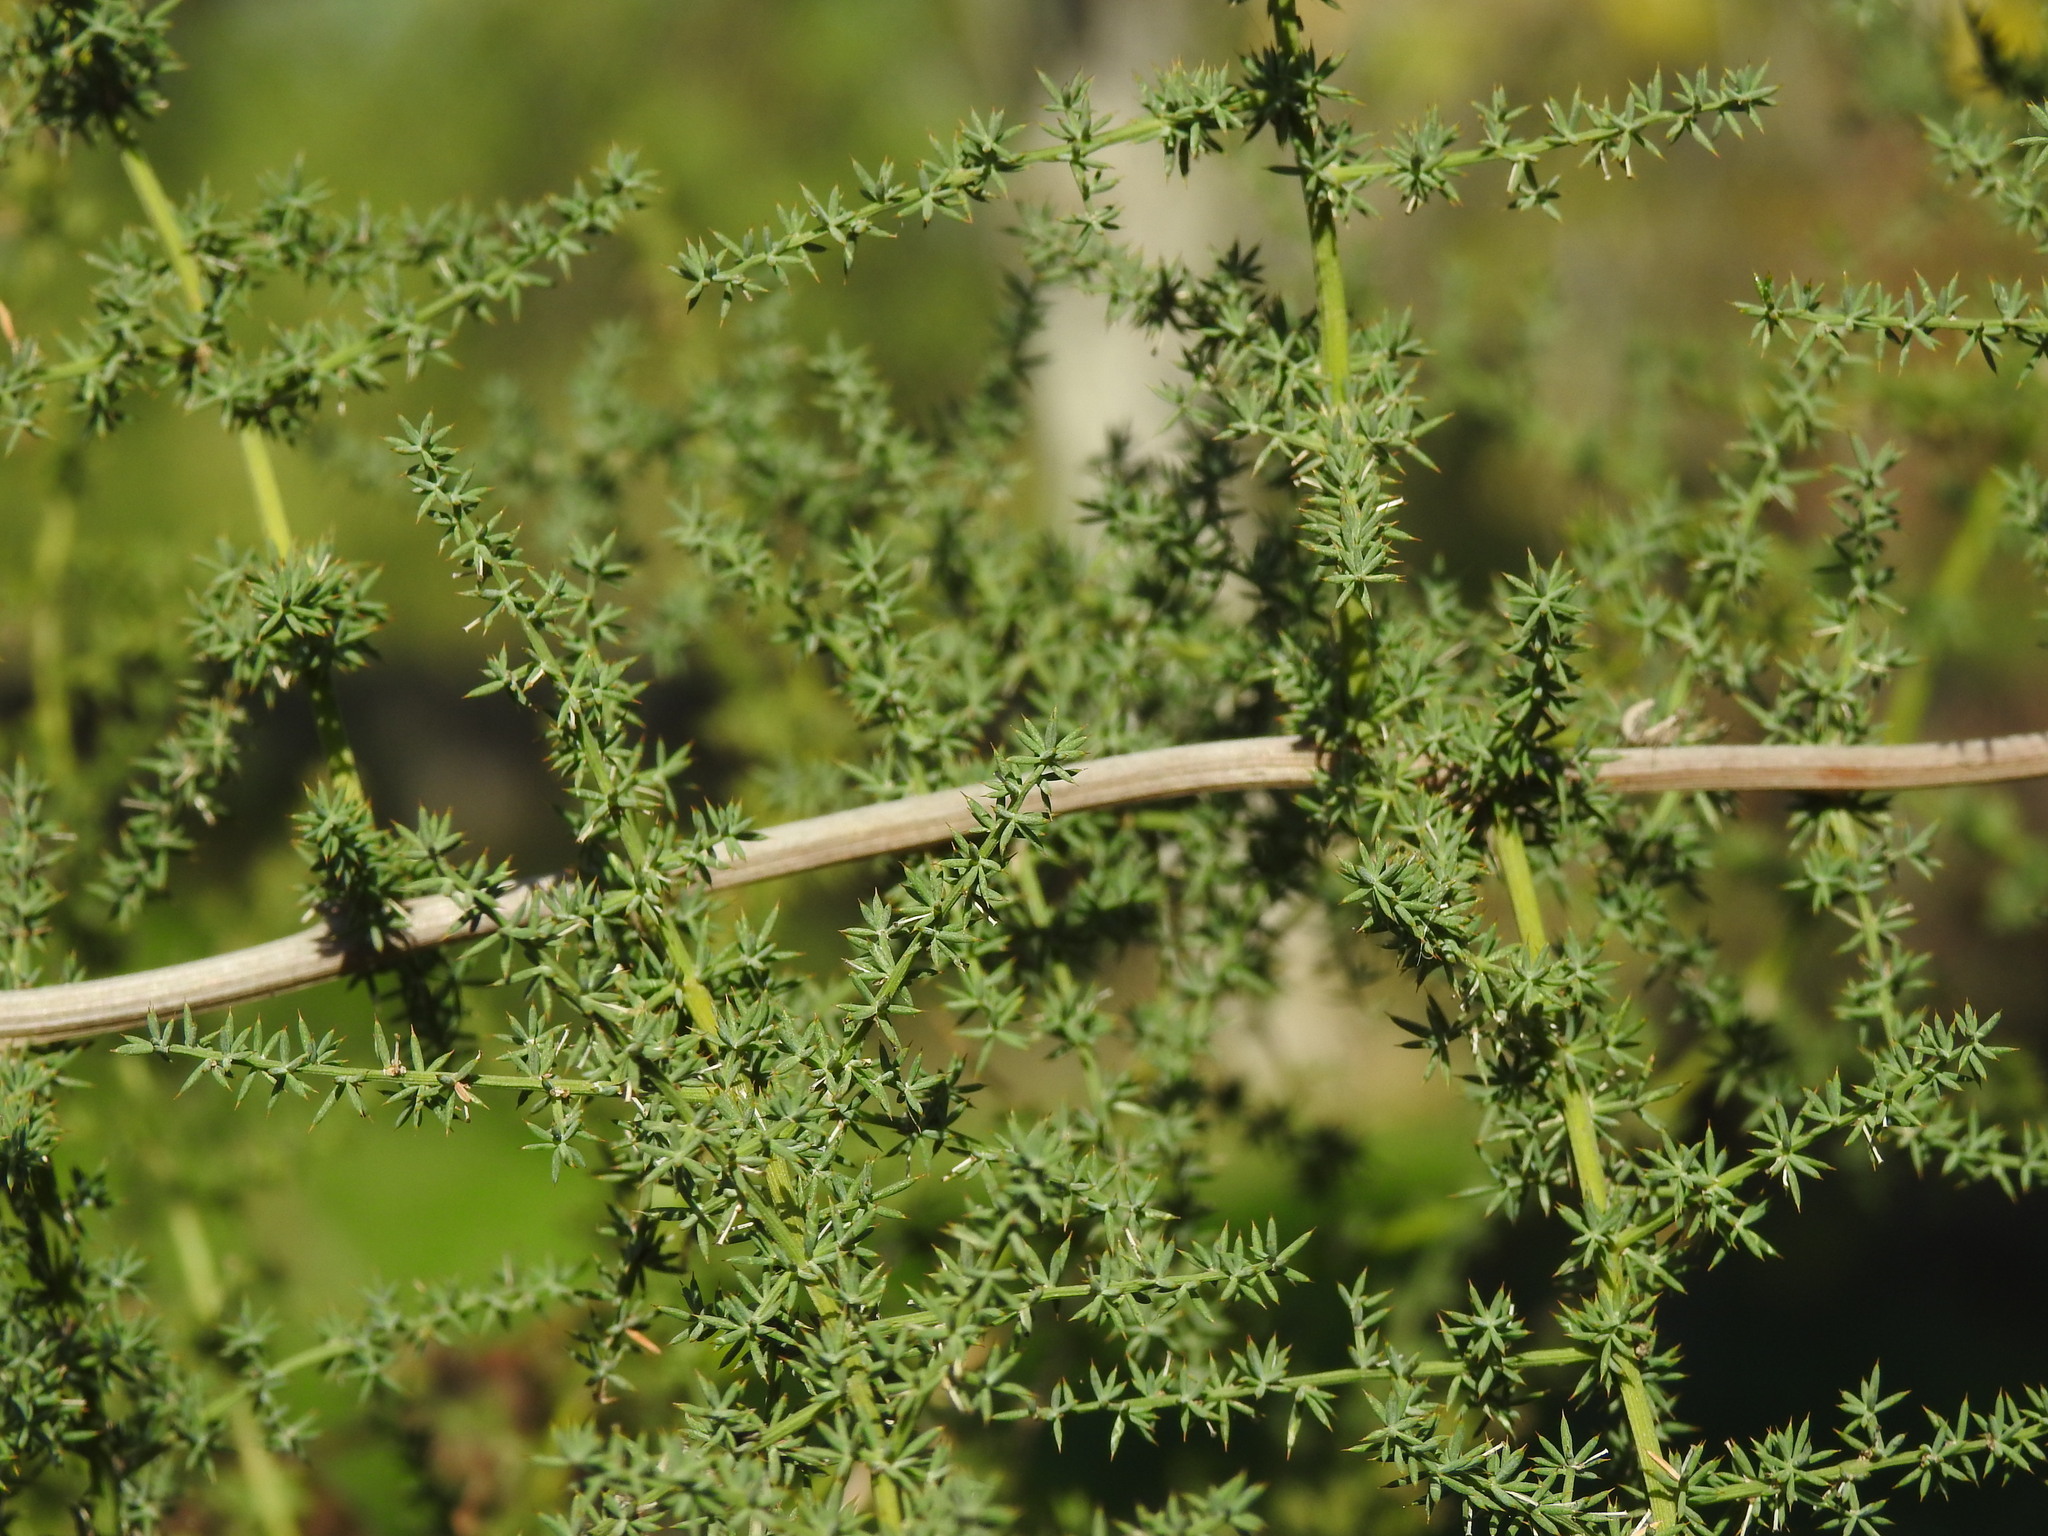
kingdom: Plantae
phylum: Tracheophyta
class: Liliopsida
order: Asparagales
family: Asparagaceae
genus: Asparagus
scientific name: Asparagus acutifolius
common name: Wild asparagus
